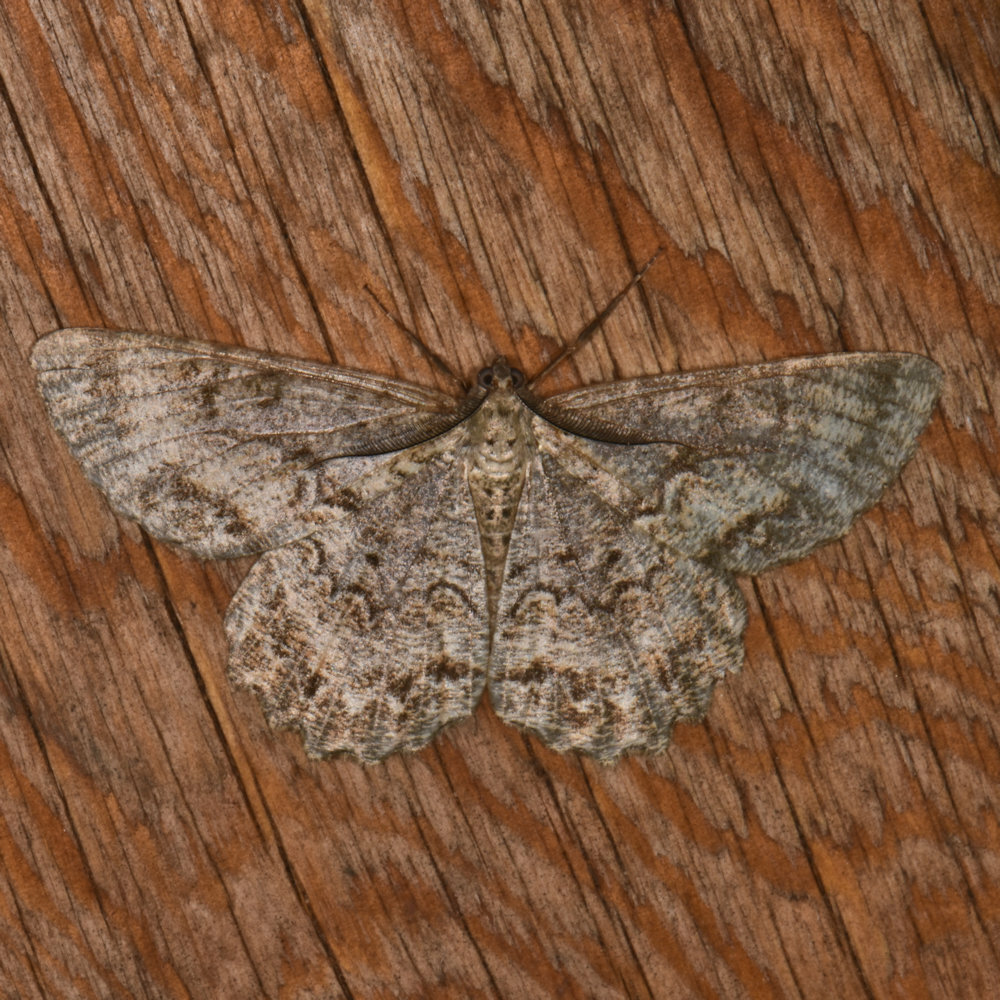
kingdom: Animalia
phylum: Arthropoda
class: Insecta
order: Lepidoptera
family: Geometridae
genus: Epimecis
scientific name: Epimecis hortaria
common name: Tulip-tree beauty
